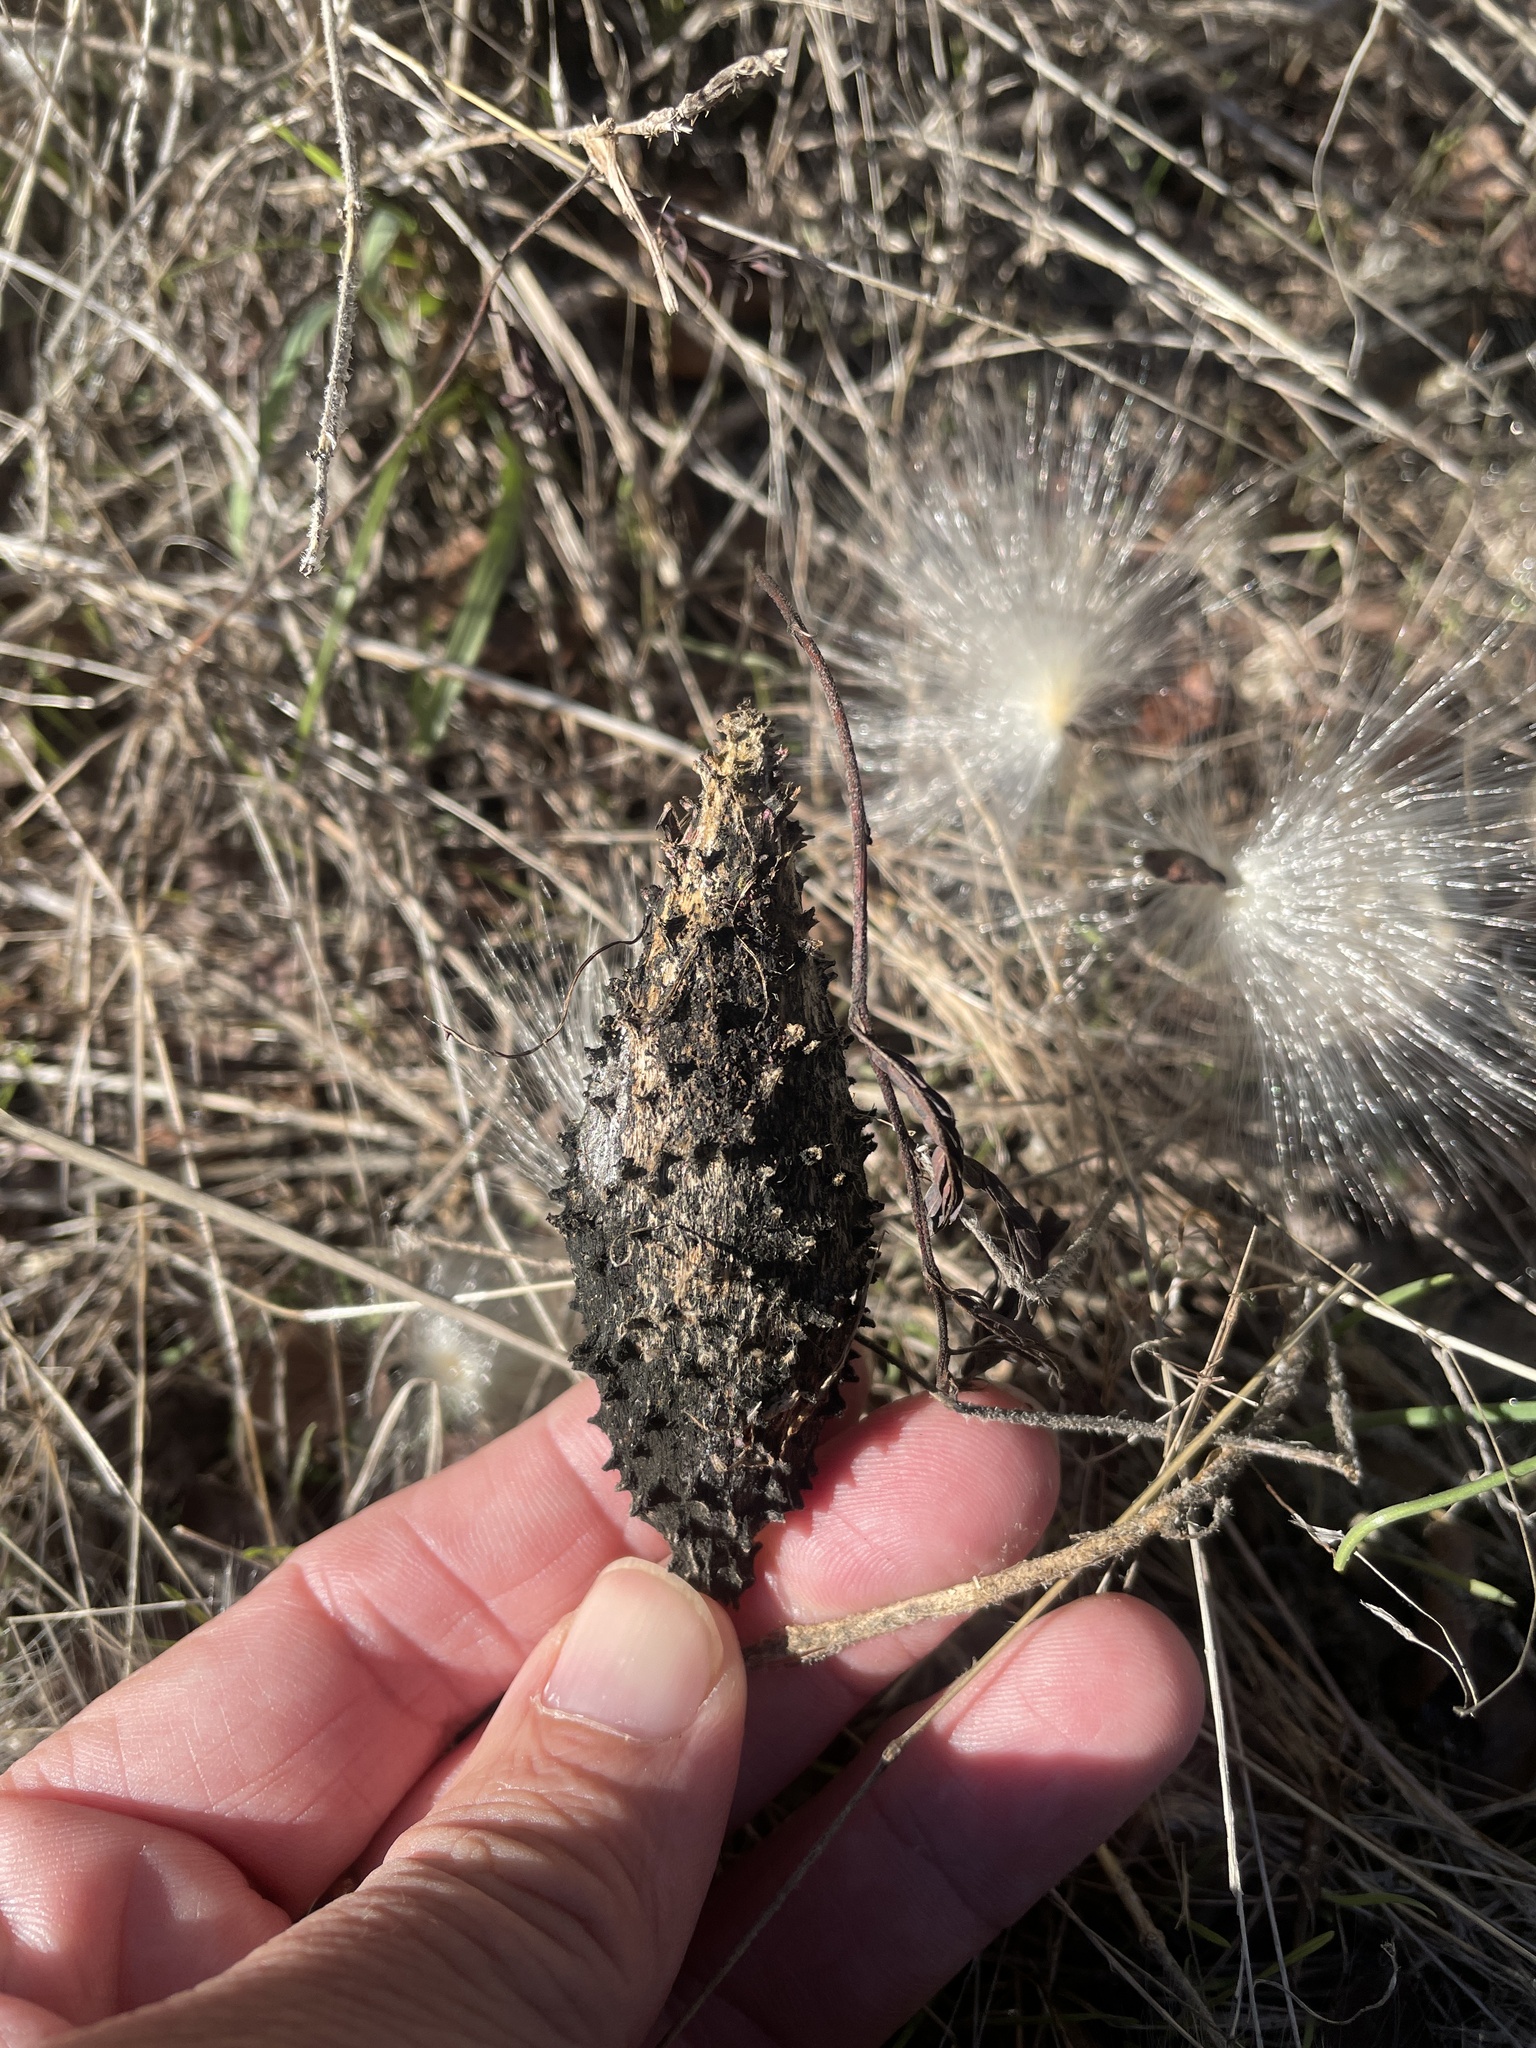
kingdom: Plantae
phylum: Tracheophyta
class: Magnoliopsida
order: Gentianales
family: Apocynaceae
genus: Chthamalia
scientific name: Chthamalia biflora
